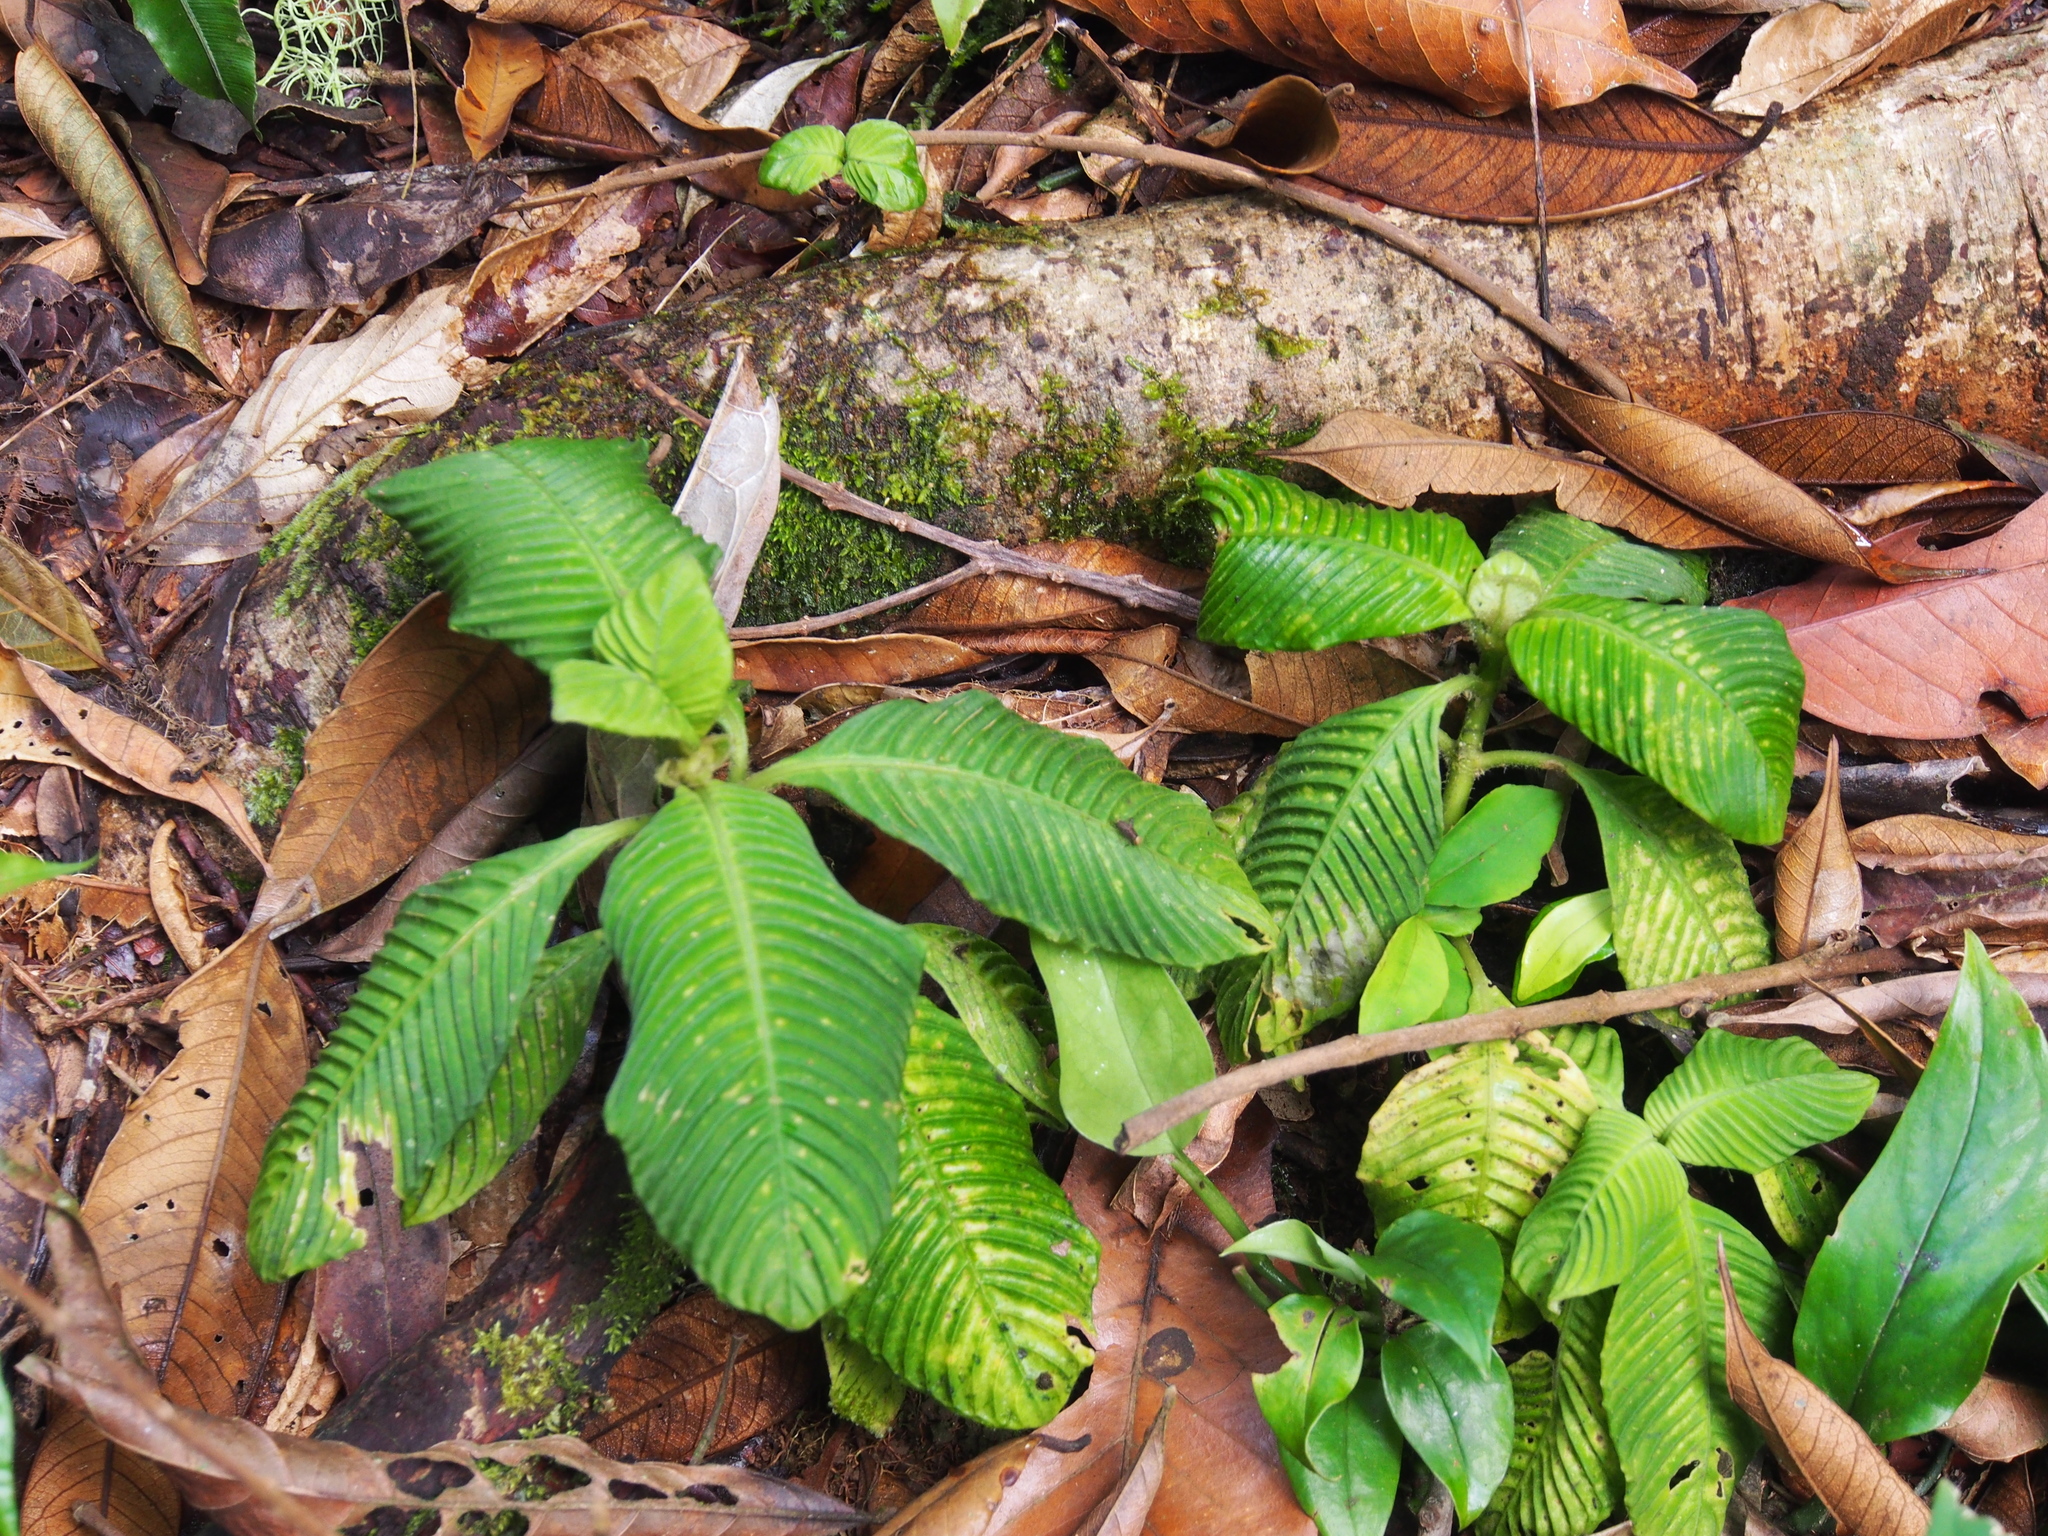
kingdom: Plantae
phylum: Tracheophyta
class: Magnoliopsida
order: Gentianales
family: Rubiaceae
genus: Notopleura
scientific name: Notopleura polyphlebia
